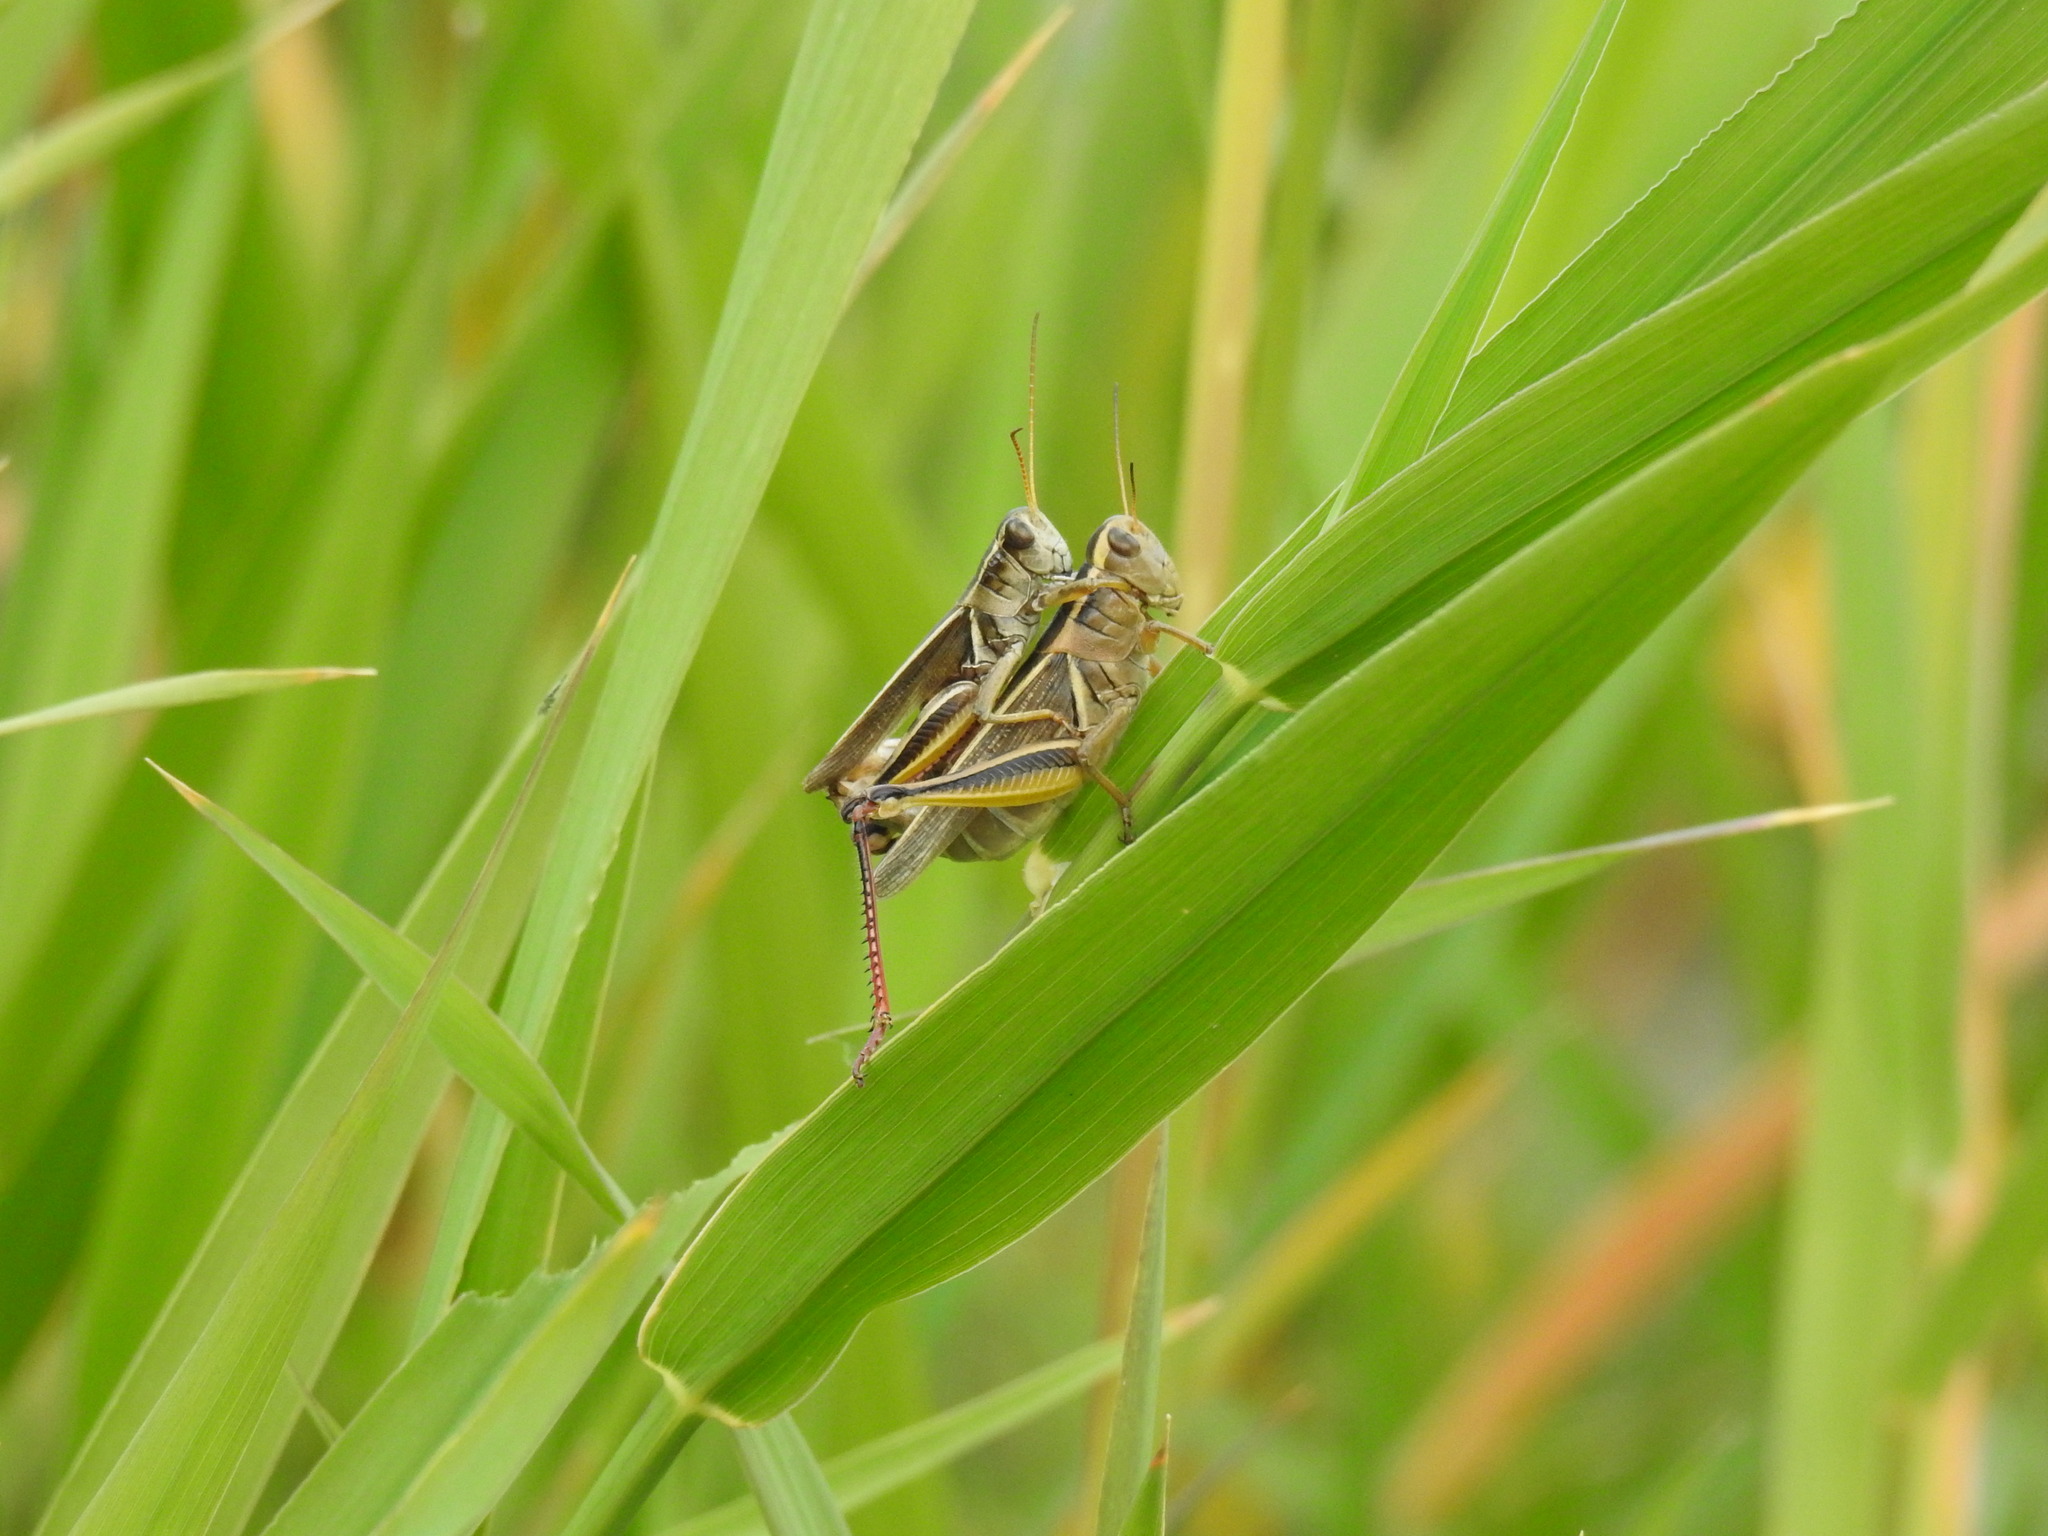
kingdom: Animalia
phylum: Arthropoda
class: Insecta
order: Orthoptera
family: Acrididae
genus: Melanoplus
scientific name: Melanoplus bivittatus
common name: Two-striped grasshopper
